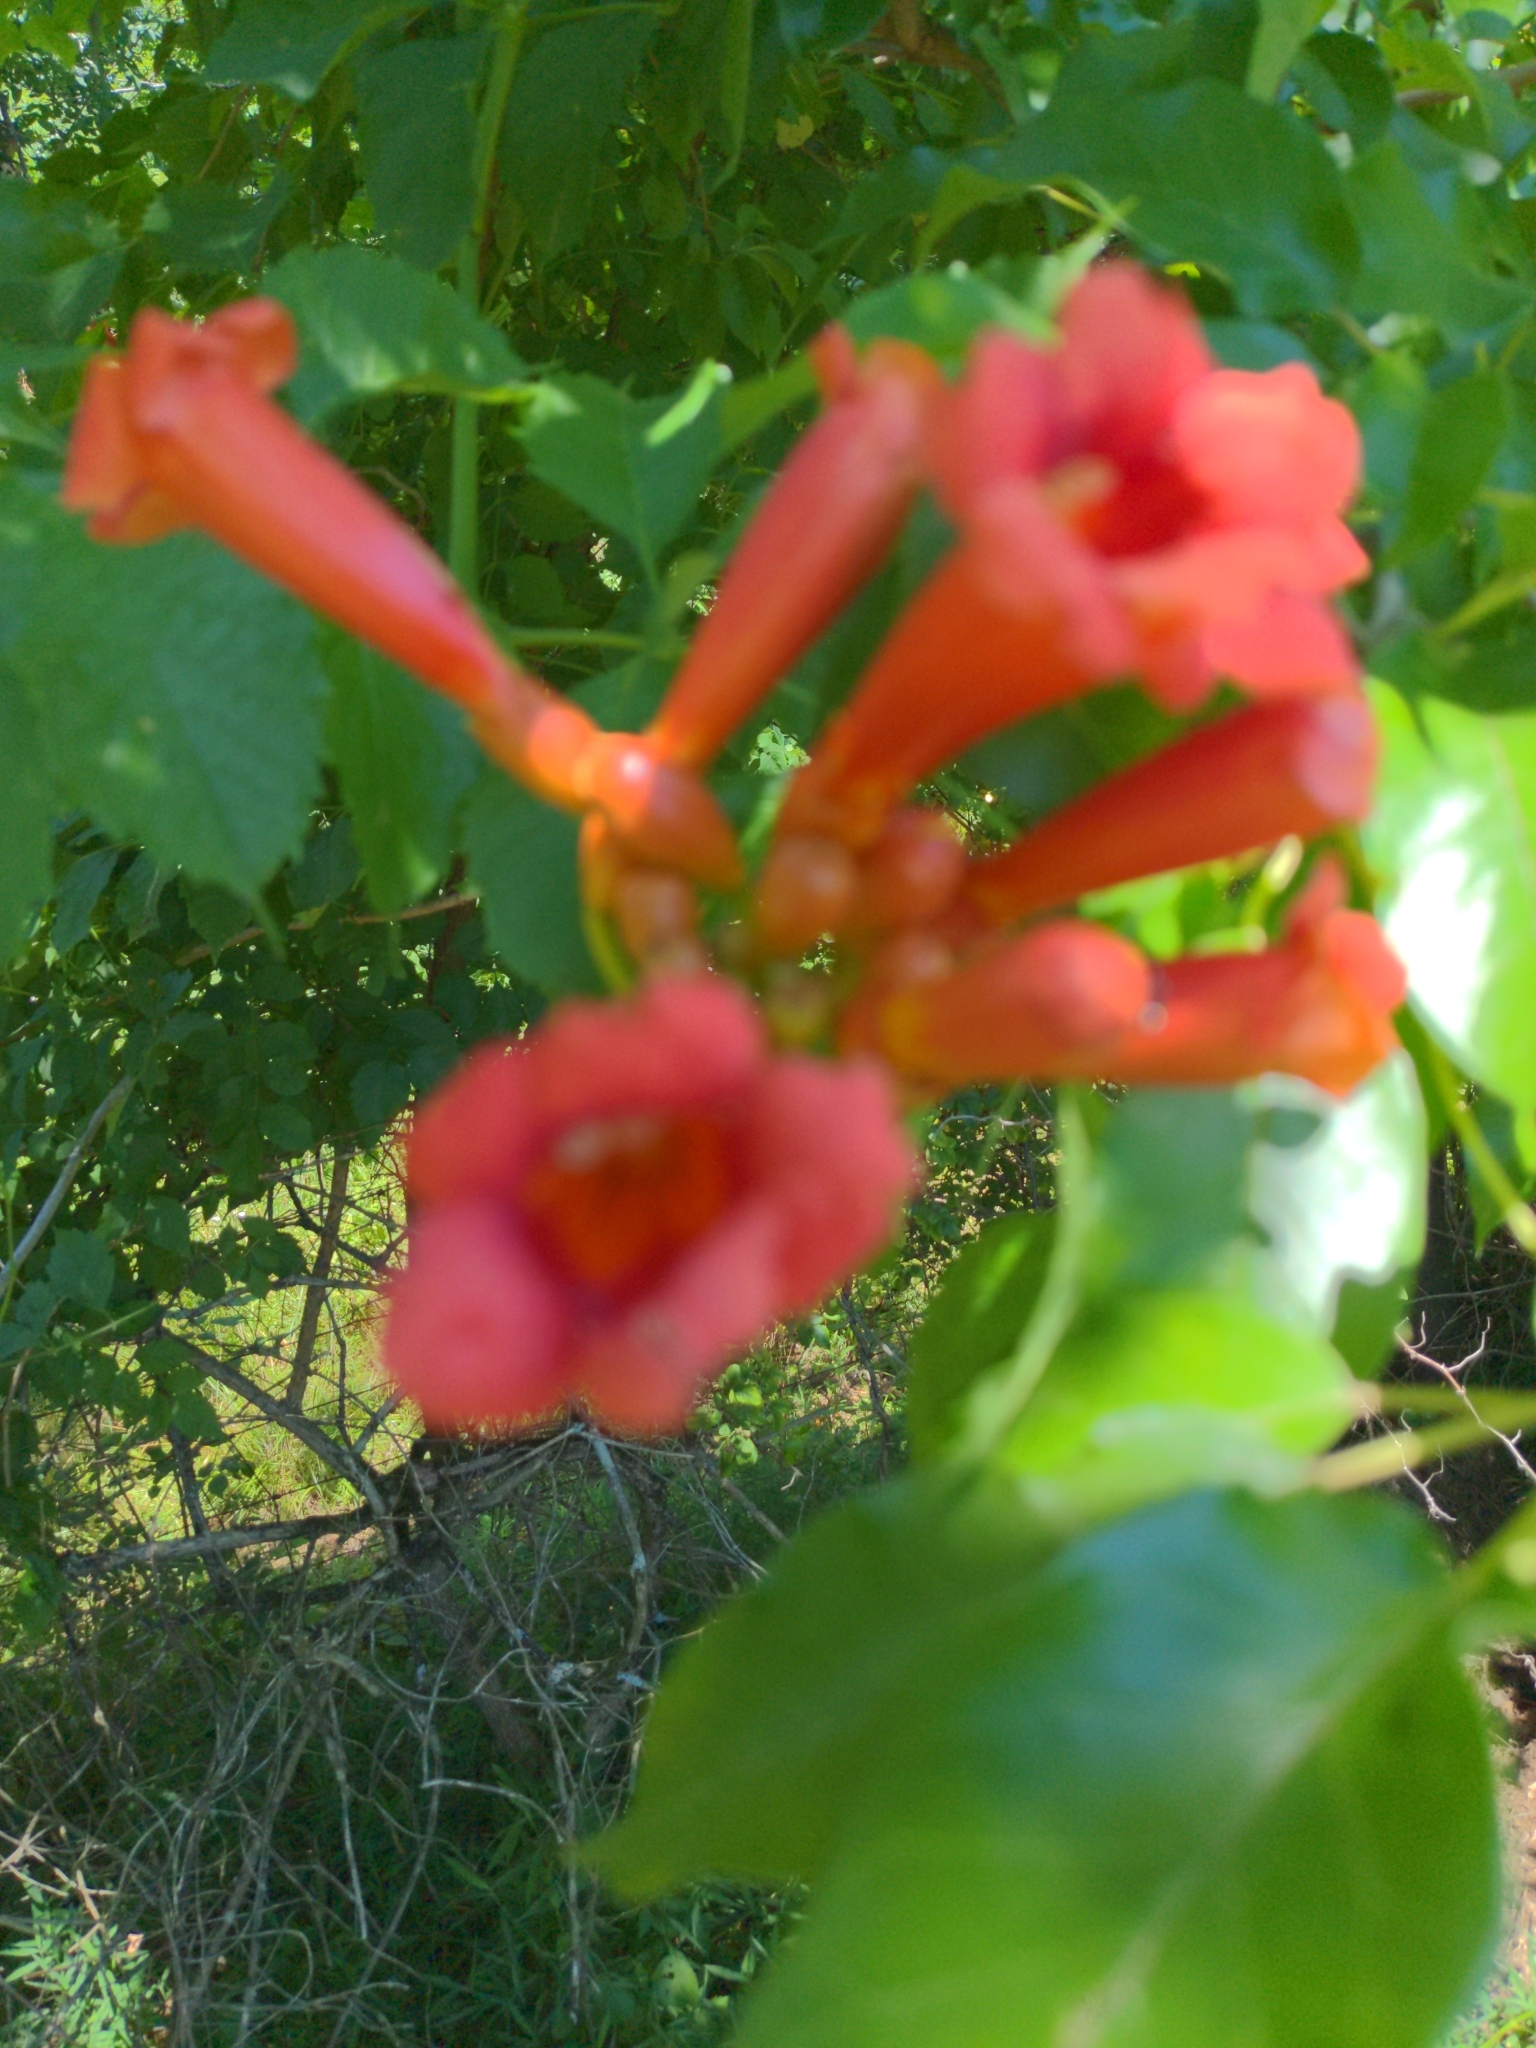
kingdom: Plantae
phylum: Tracheophyta
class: Magnoliopsida
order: Lamiales
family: Bignoniaceae
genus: Campsis
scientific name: Campsis radicans
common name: Trumpet-creeper
